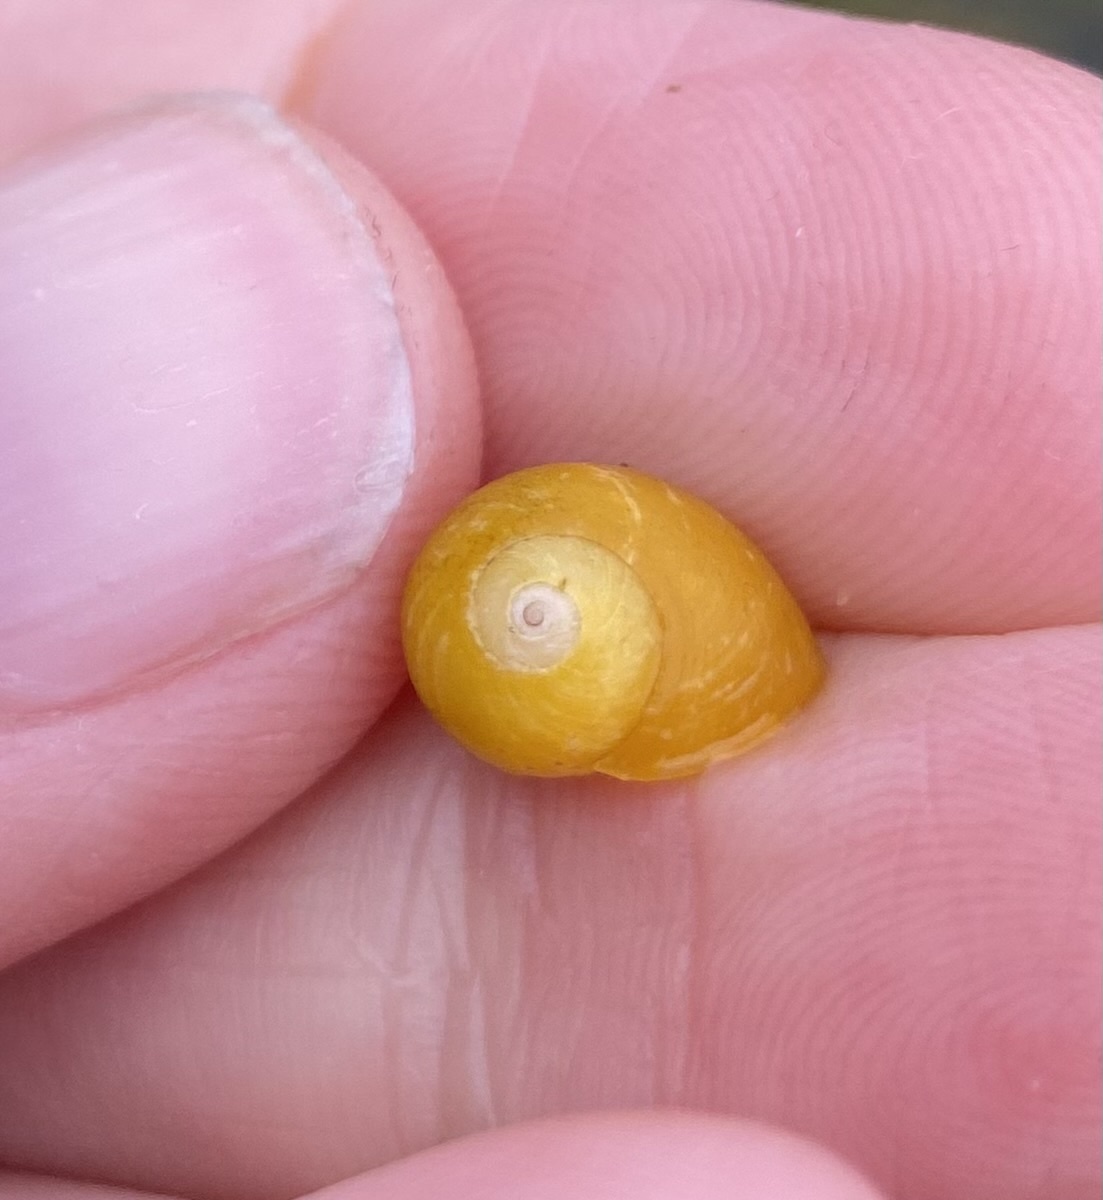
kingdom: Animalia
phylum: Mollusca
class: Gastropoda
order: Littorinimorpha
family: Littorinidae
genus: Littorina
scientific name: Littorina
